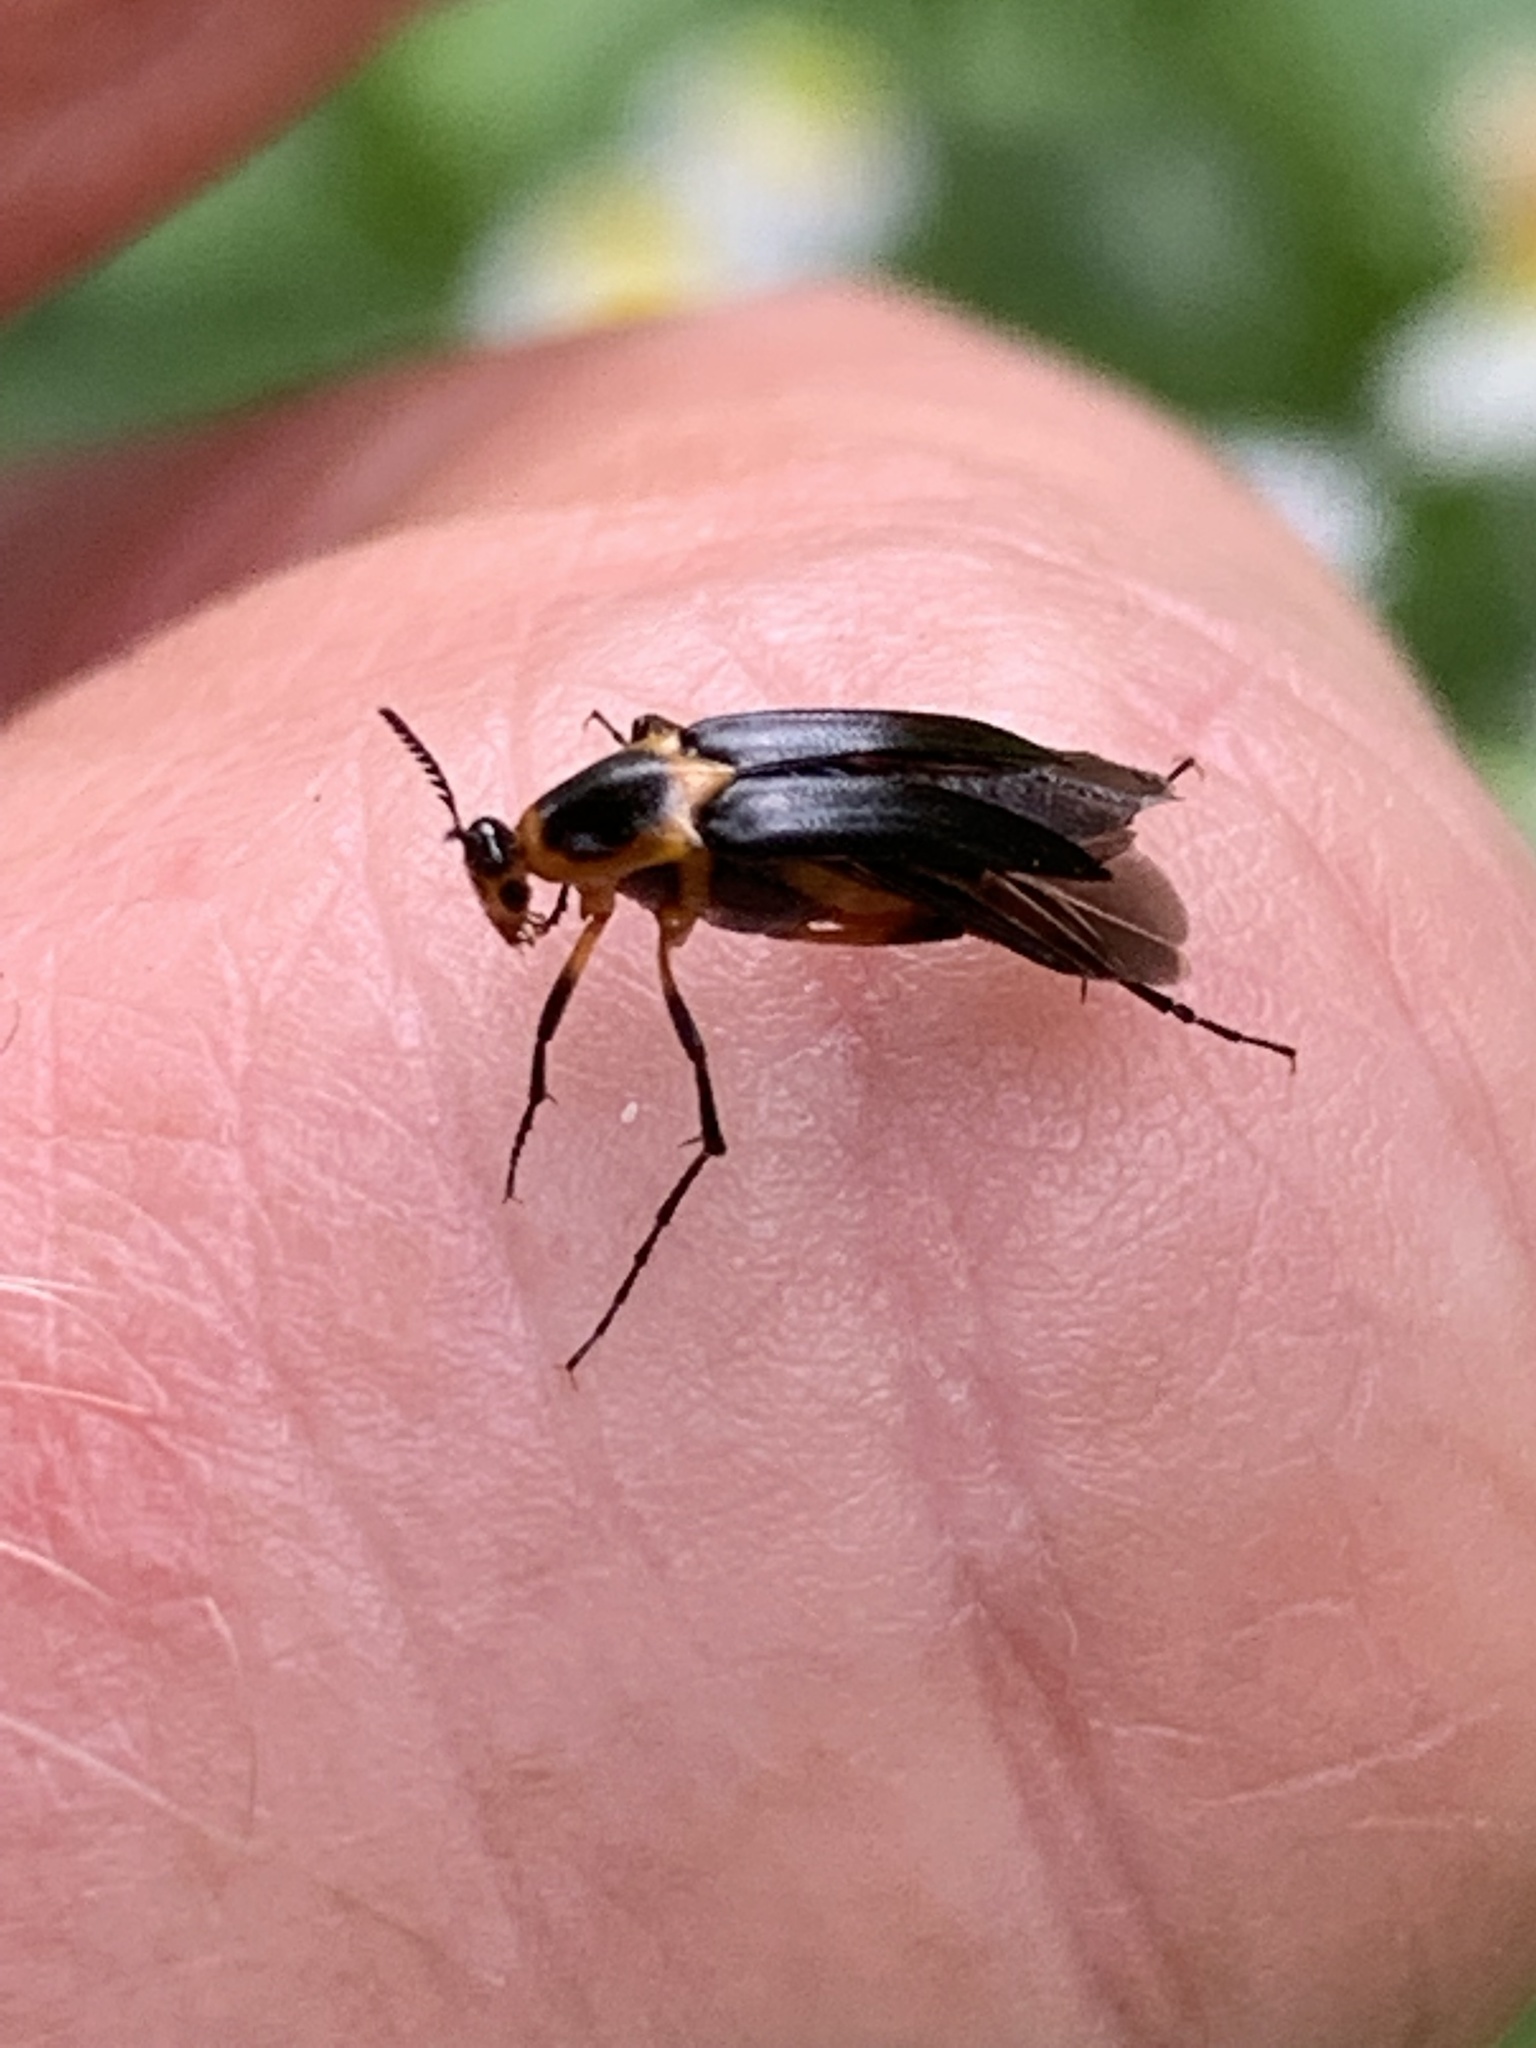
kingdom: Animalia
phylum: Arthropoda
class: Insecta
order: Coleoptera
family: Ripiphoridae
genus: Macrosiagon
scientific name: Macrosiagon limbatum
